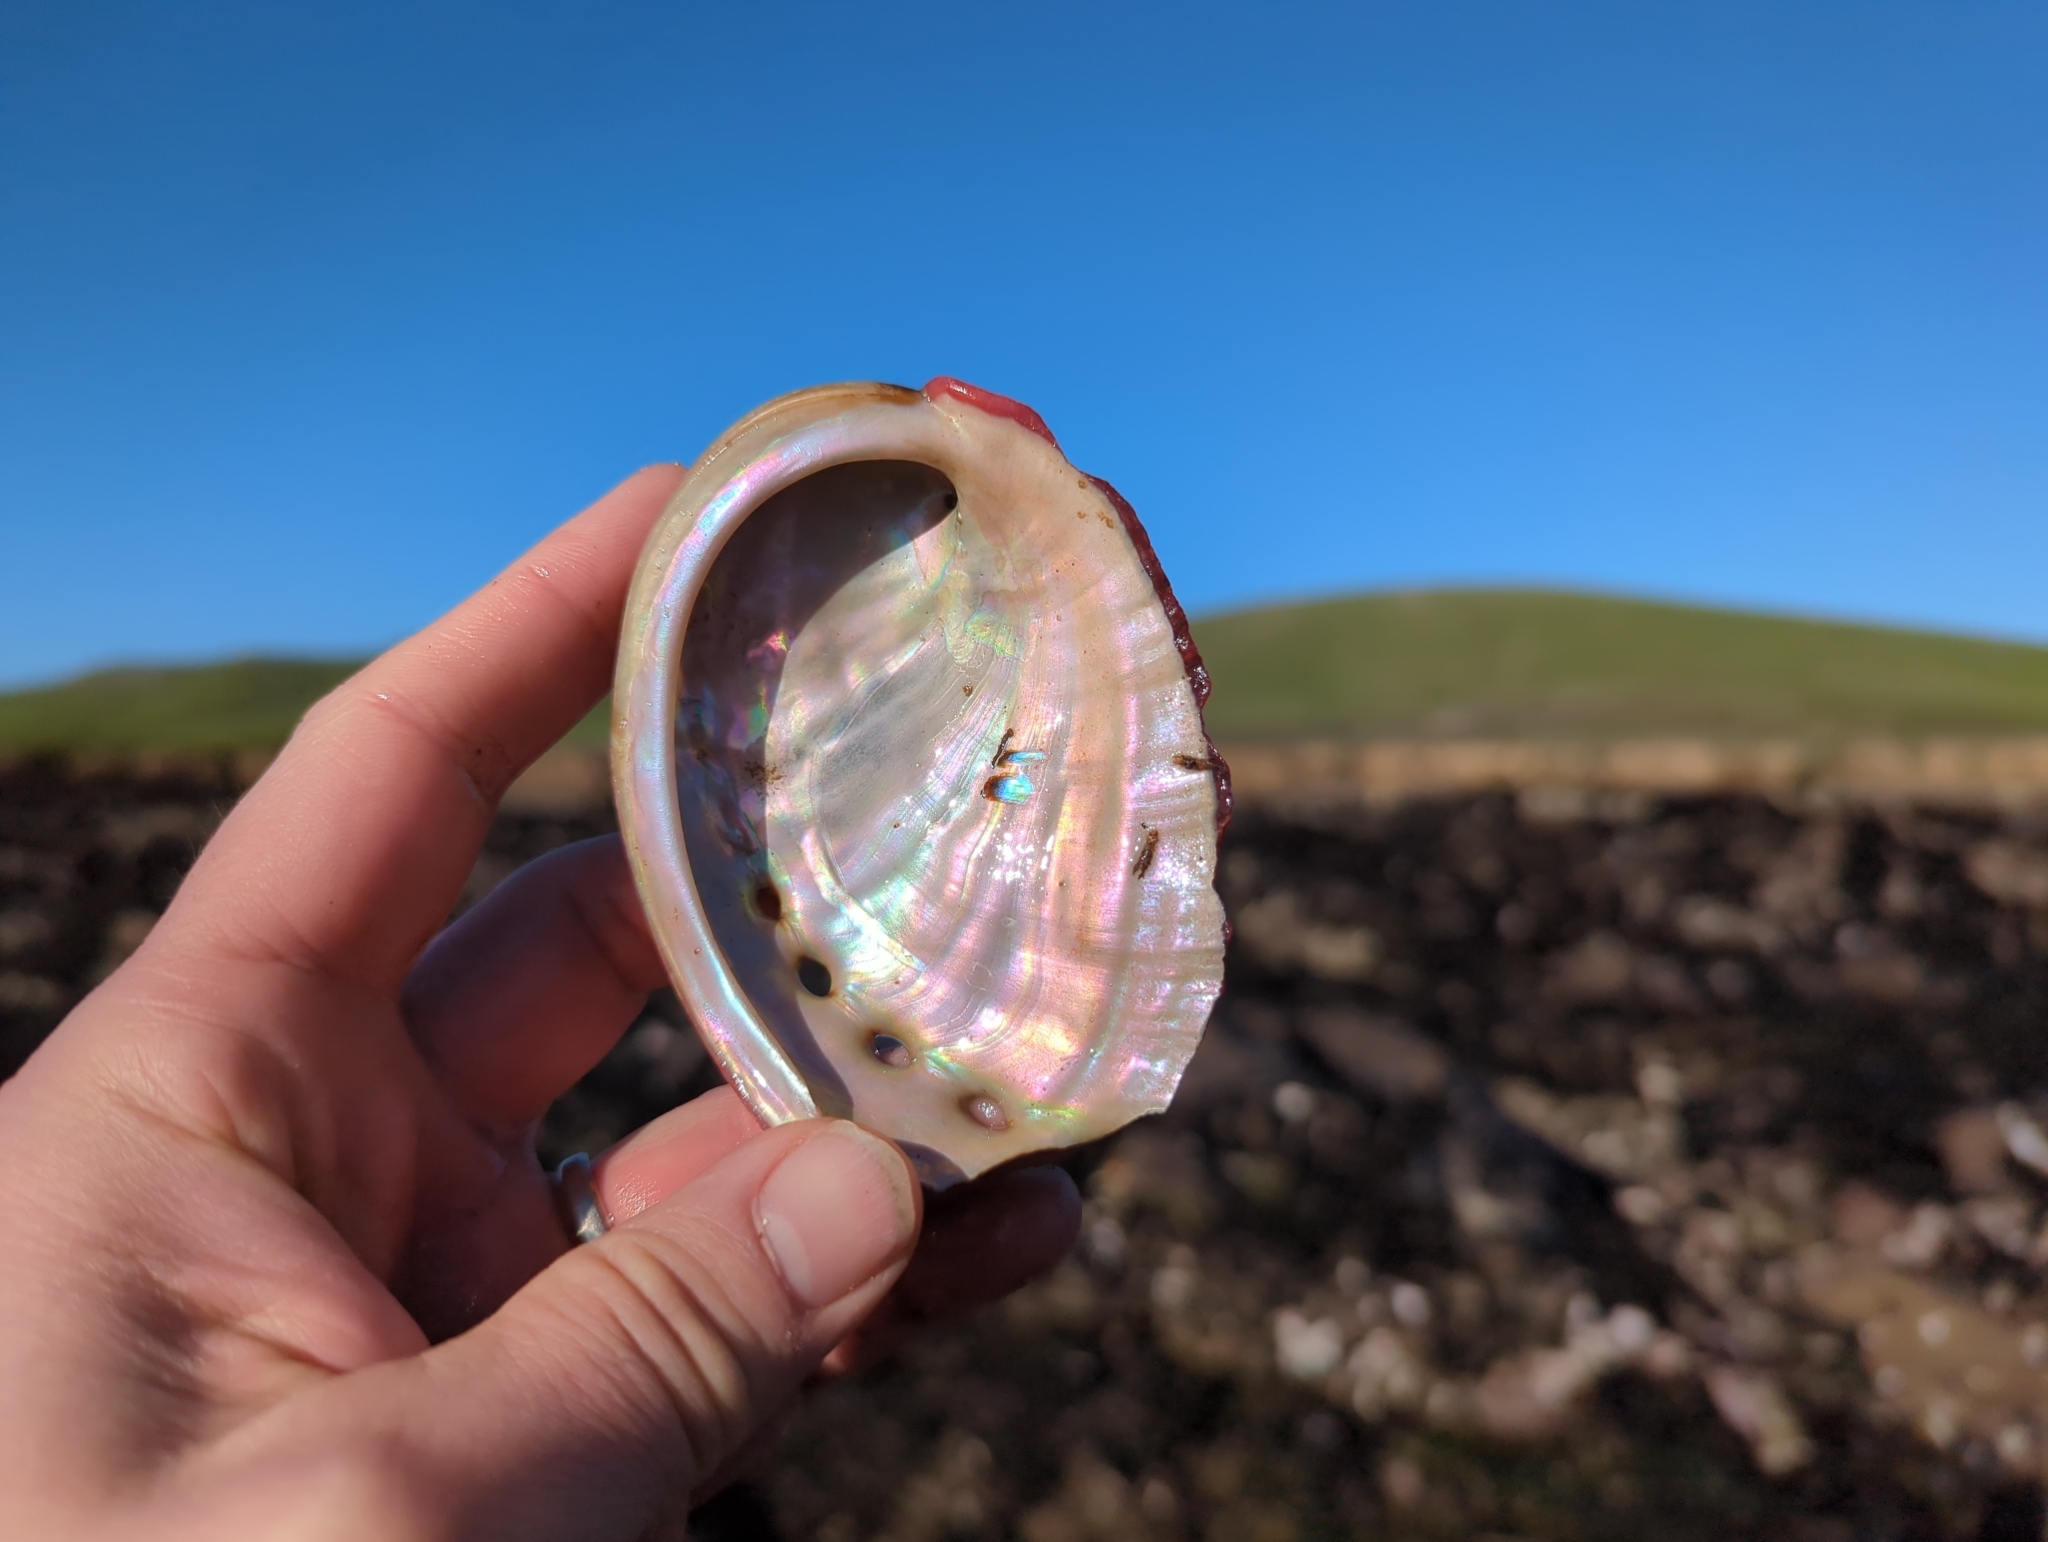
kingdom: Animalia
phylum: Mollusca
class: Gastropoda
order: Lepetellida
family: Haliotidae
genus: Haliotis
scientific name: Haliotis rufescens
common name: Red abalone
